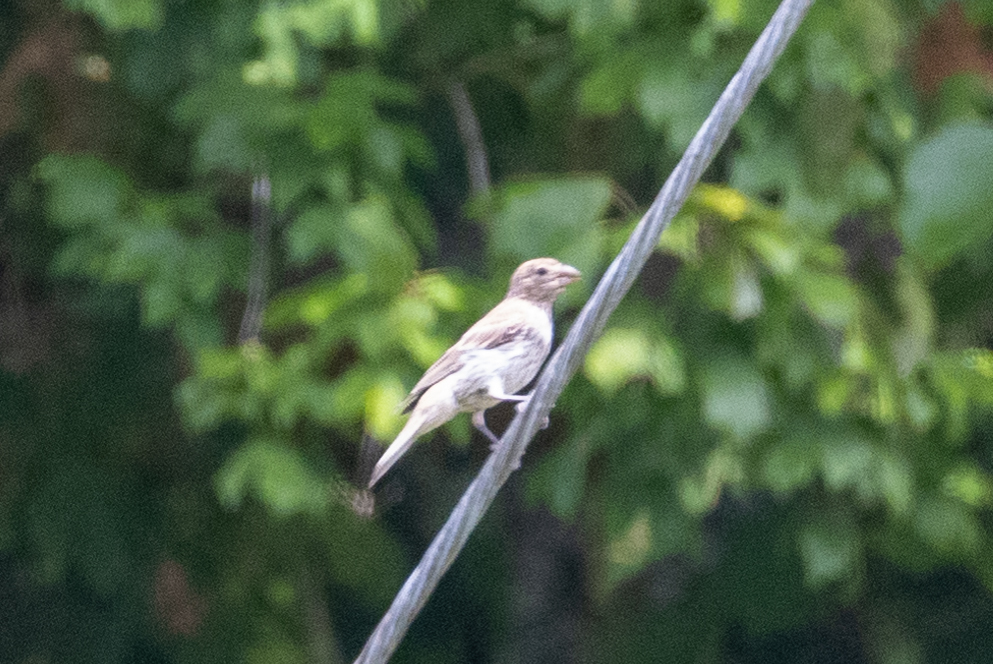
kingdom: Animalia
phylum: Chordata
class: Aves
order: Passeriformes
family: Fringillidae
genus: Haemorhous
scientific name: Haemorhous mexicanus
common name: House finch
